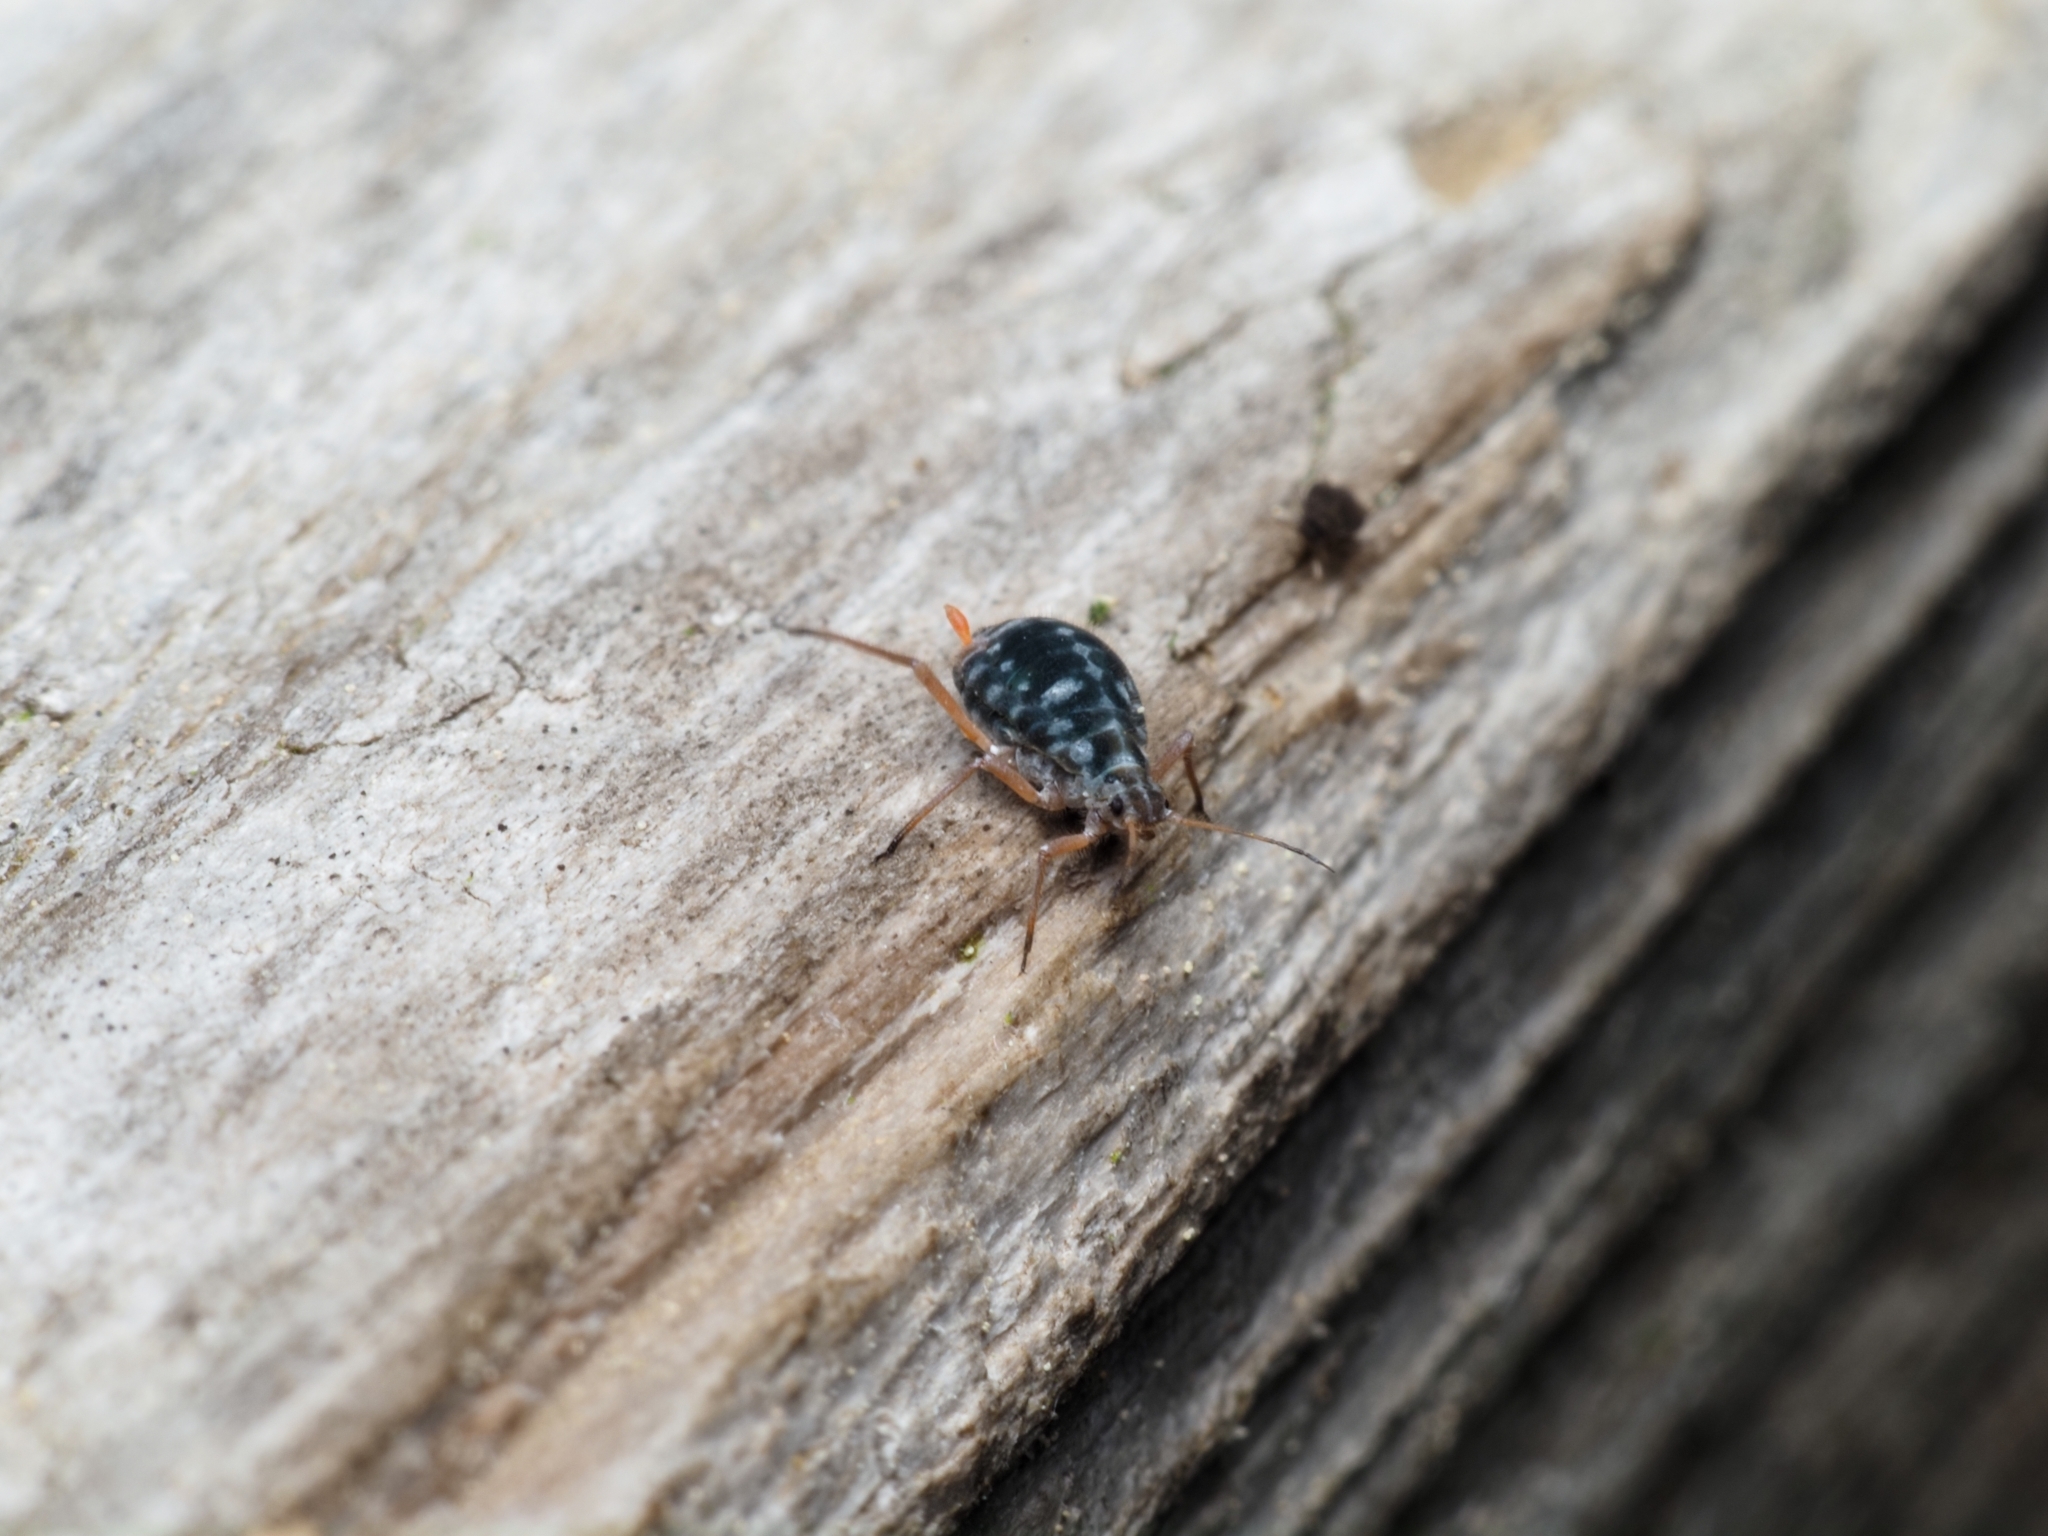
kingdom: Animalia
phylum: Arthropoda
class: Insecta
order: Hemiptera
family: Aphididae
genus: Pterocomma
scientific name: Pterocomma salicis
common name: Aphid
